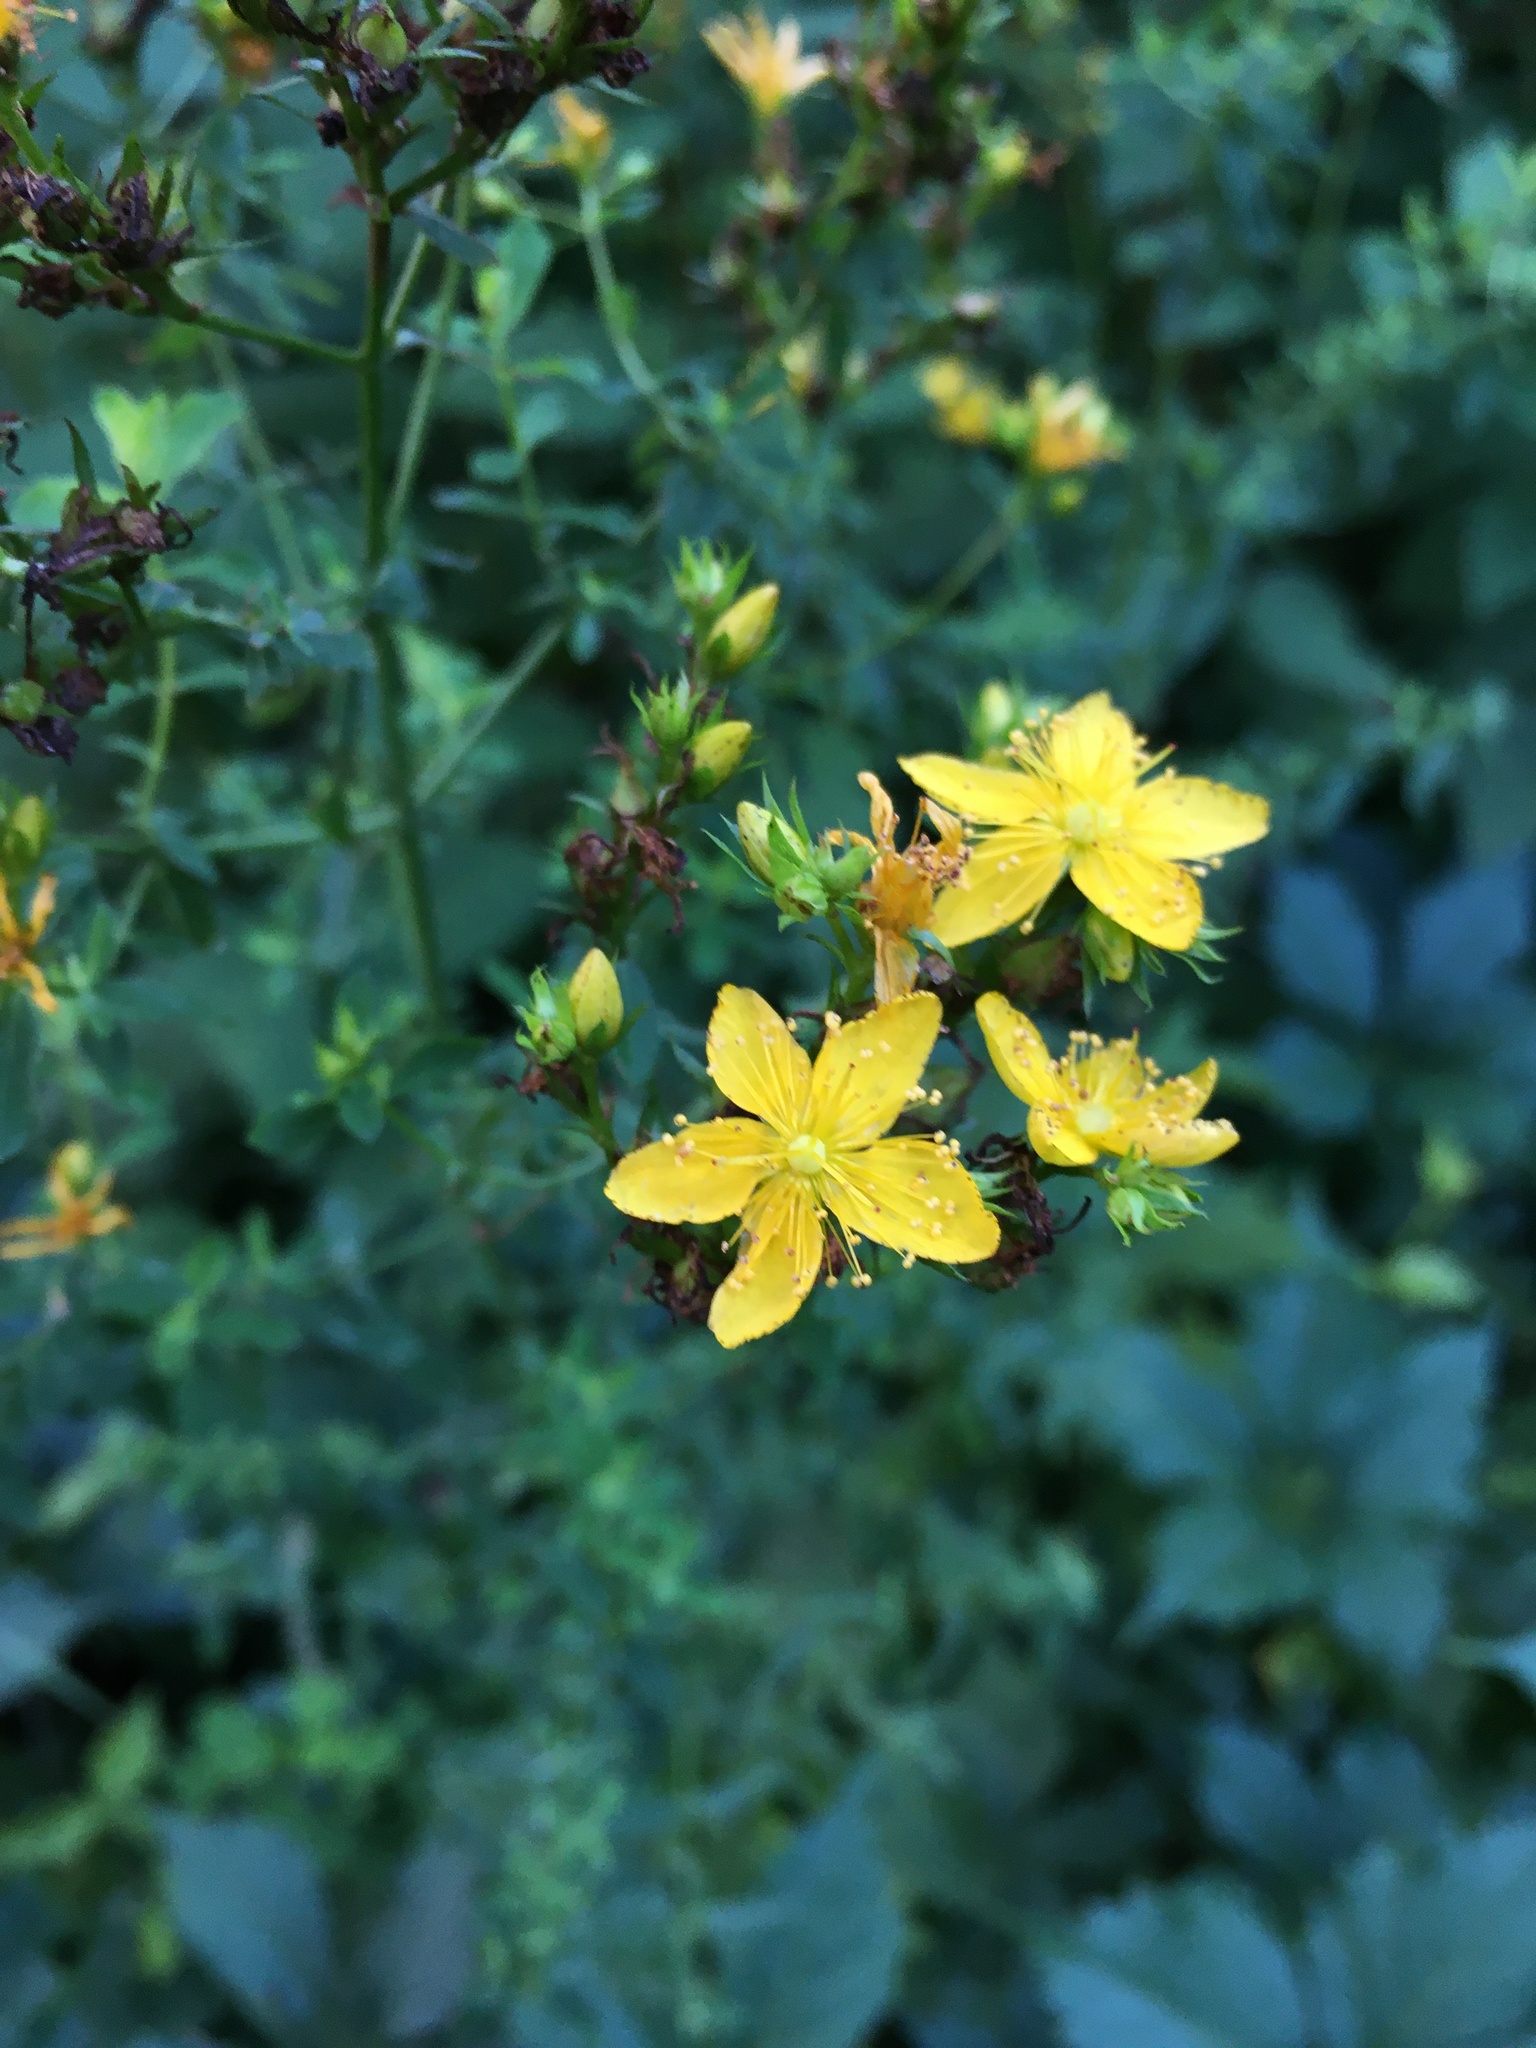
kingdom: Plantae
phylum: Tracheophyta
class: Magnoliopsida
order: Malpighiales
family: Hypericaceae
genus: Hypericum
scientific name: Hypericum perforatum
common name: Common st. johnswort
